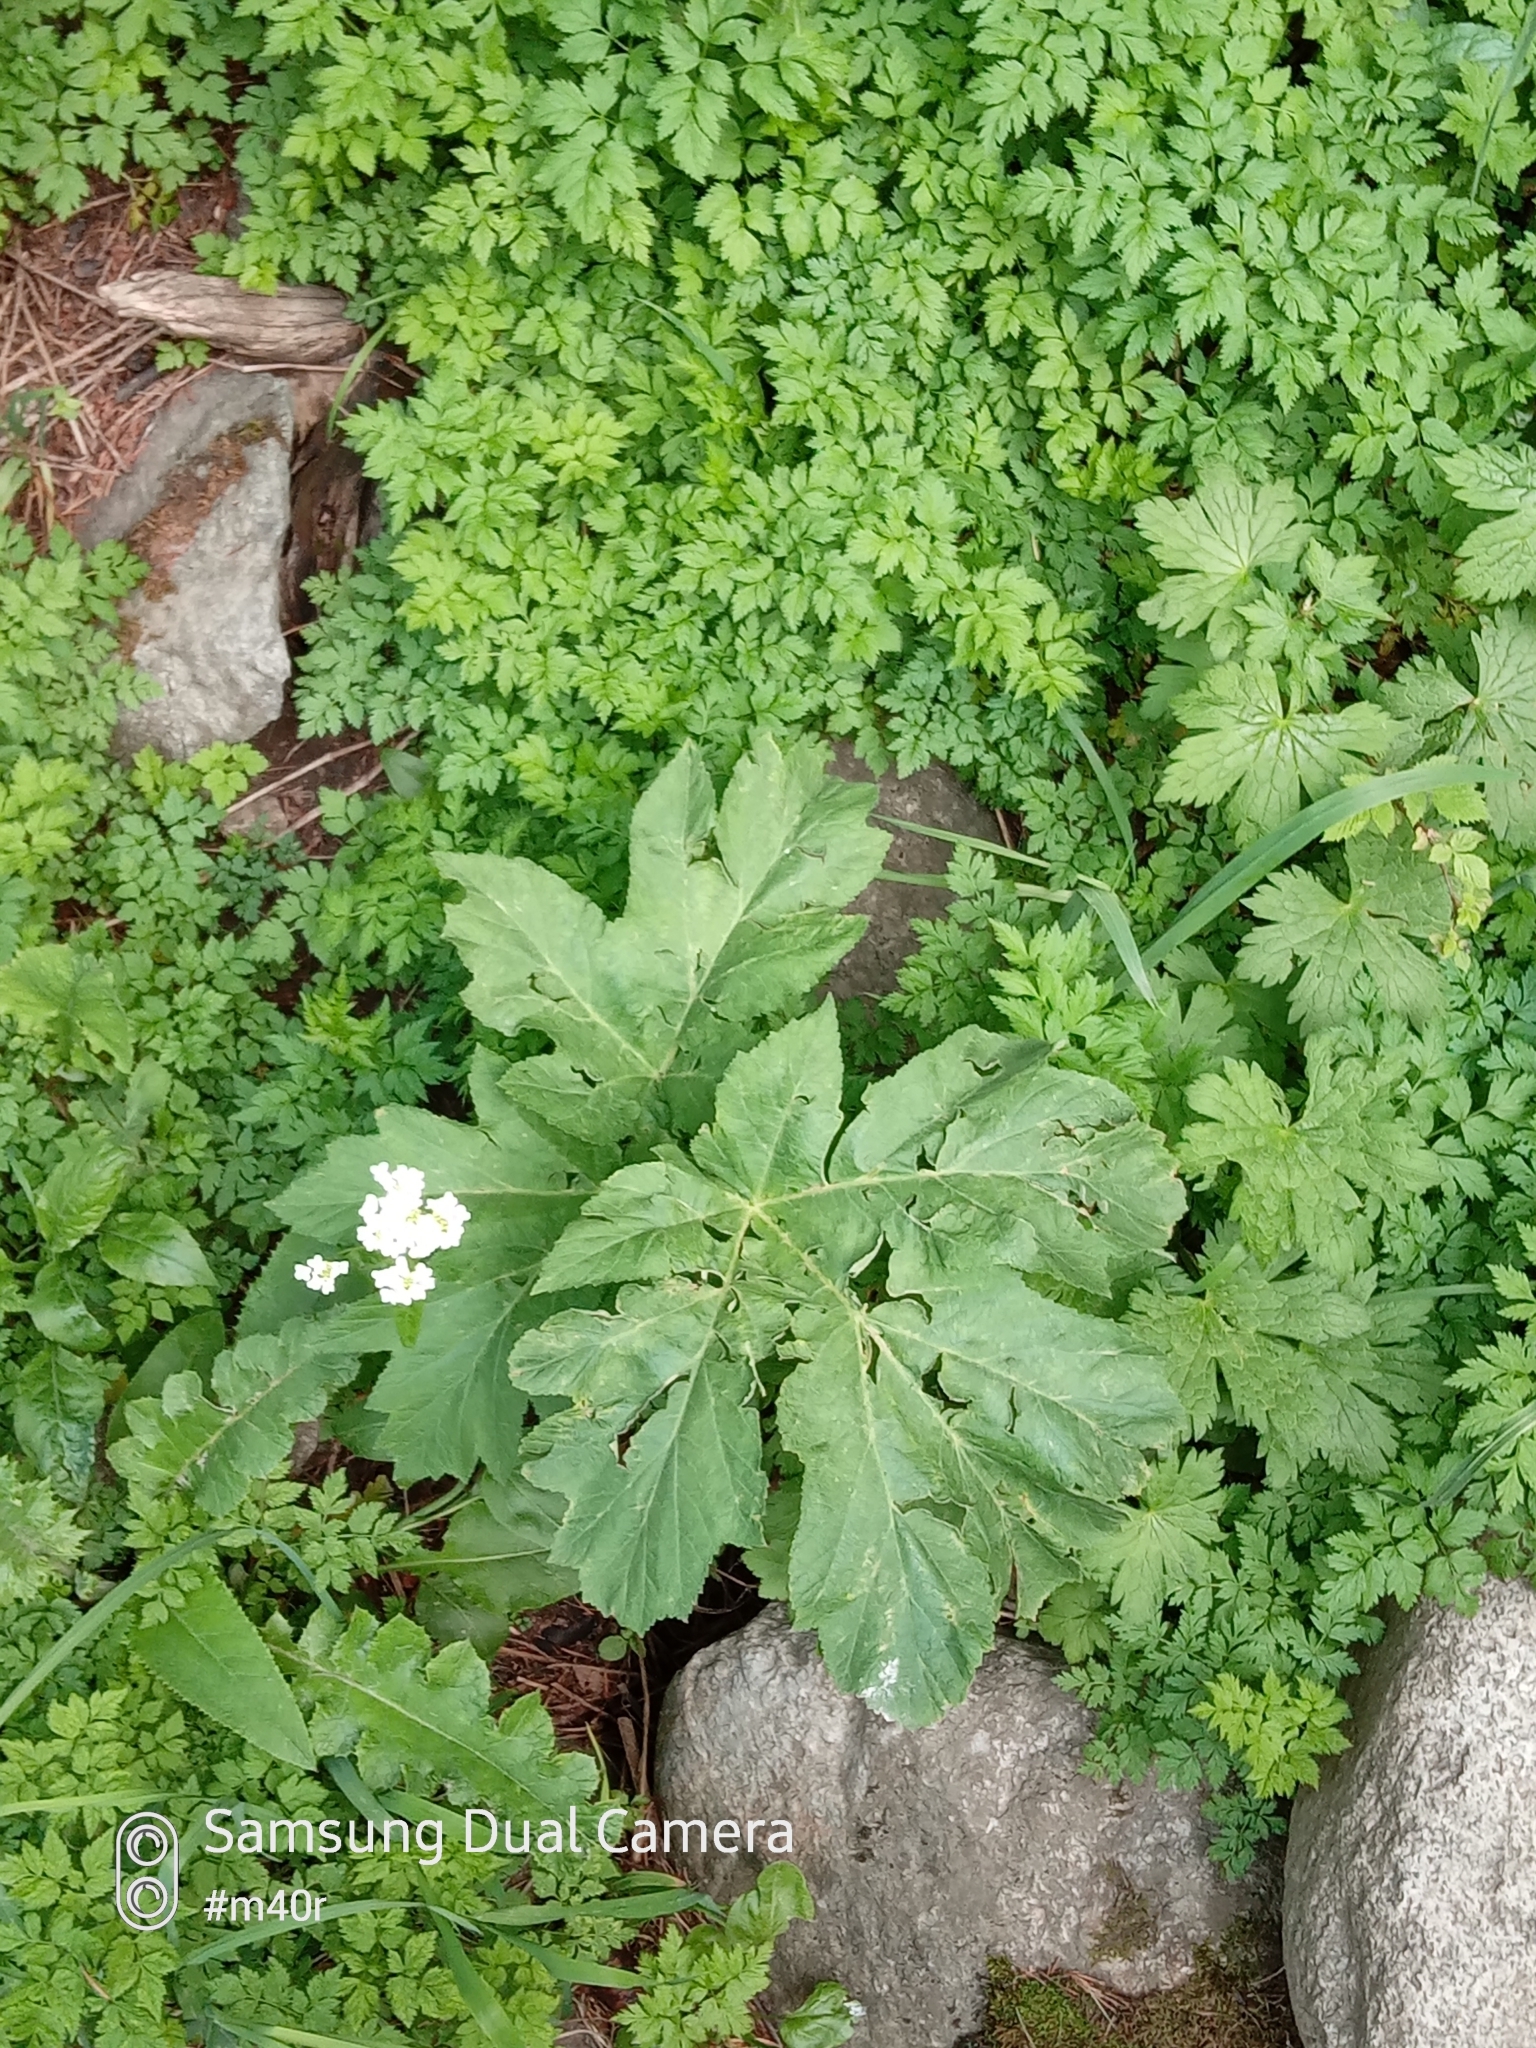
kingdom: Plantae
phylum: Tracheophyta
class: Magnoliopsida
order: Apiales
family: Apiaceae
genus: Heracleum
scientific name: Heracleum dissectum
